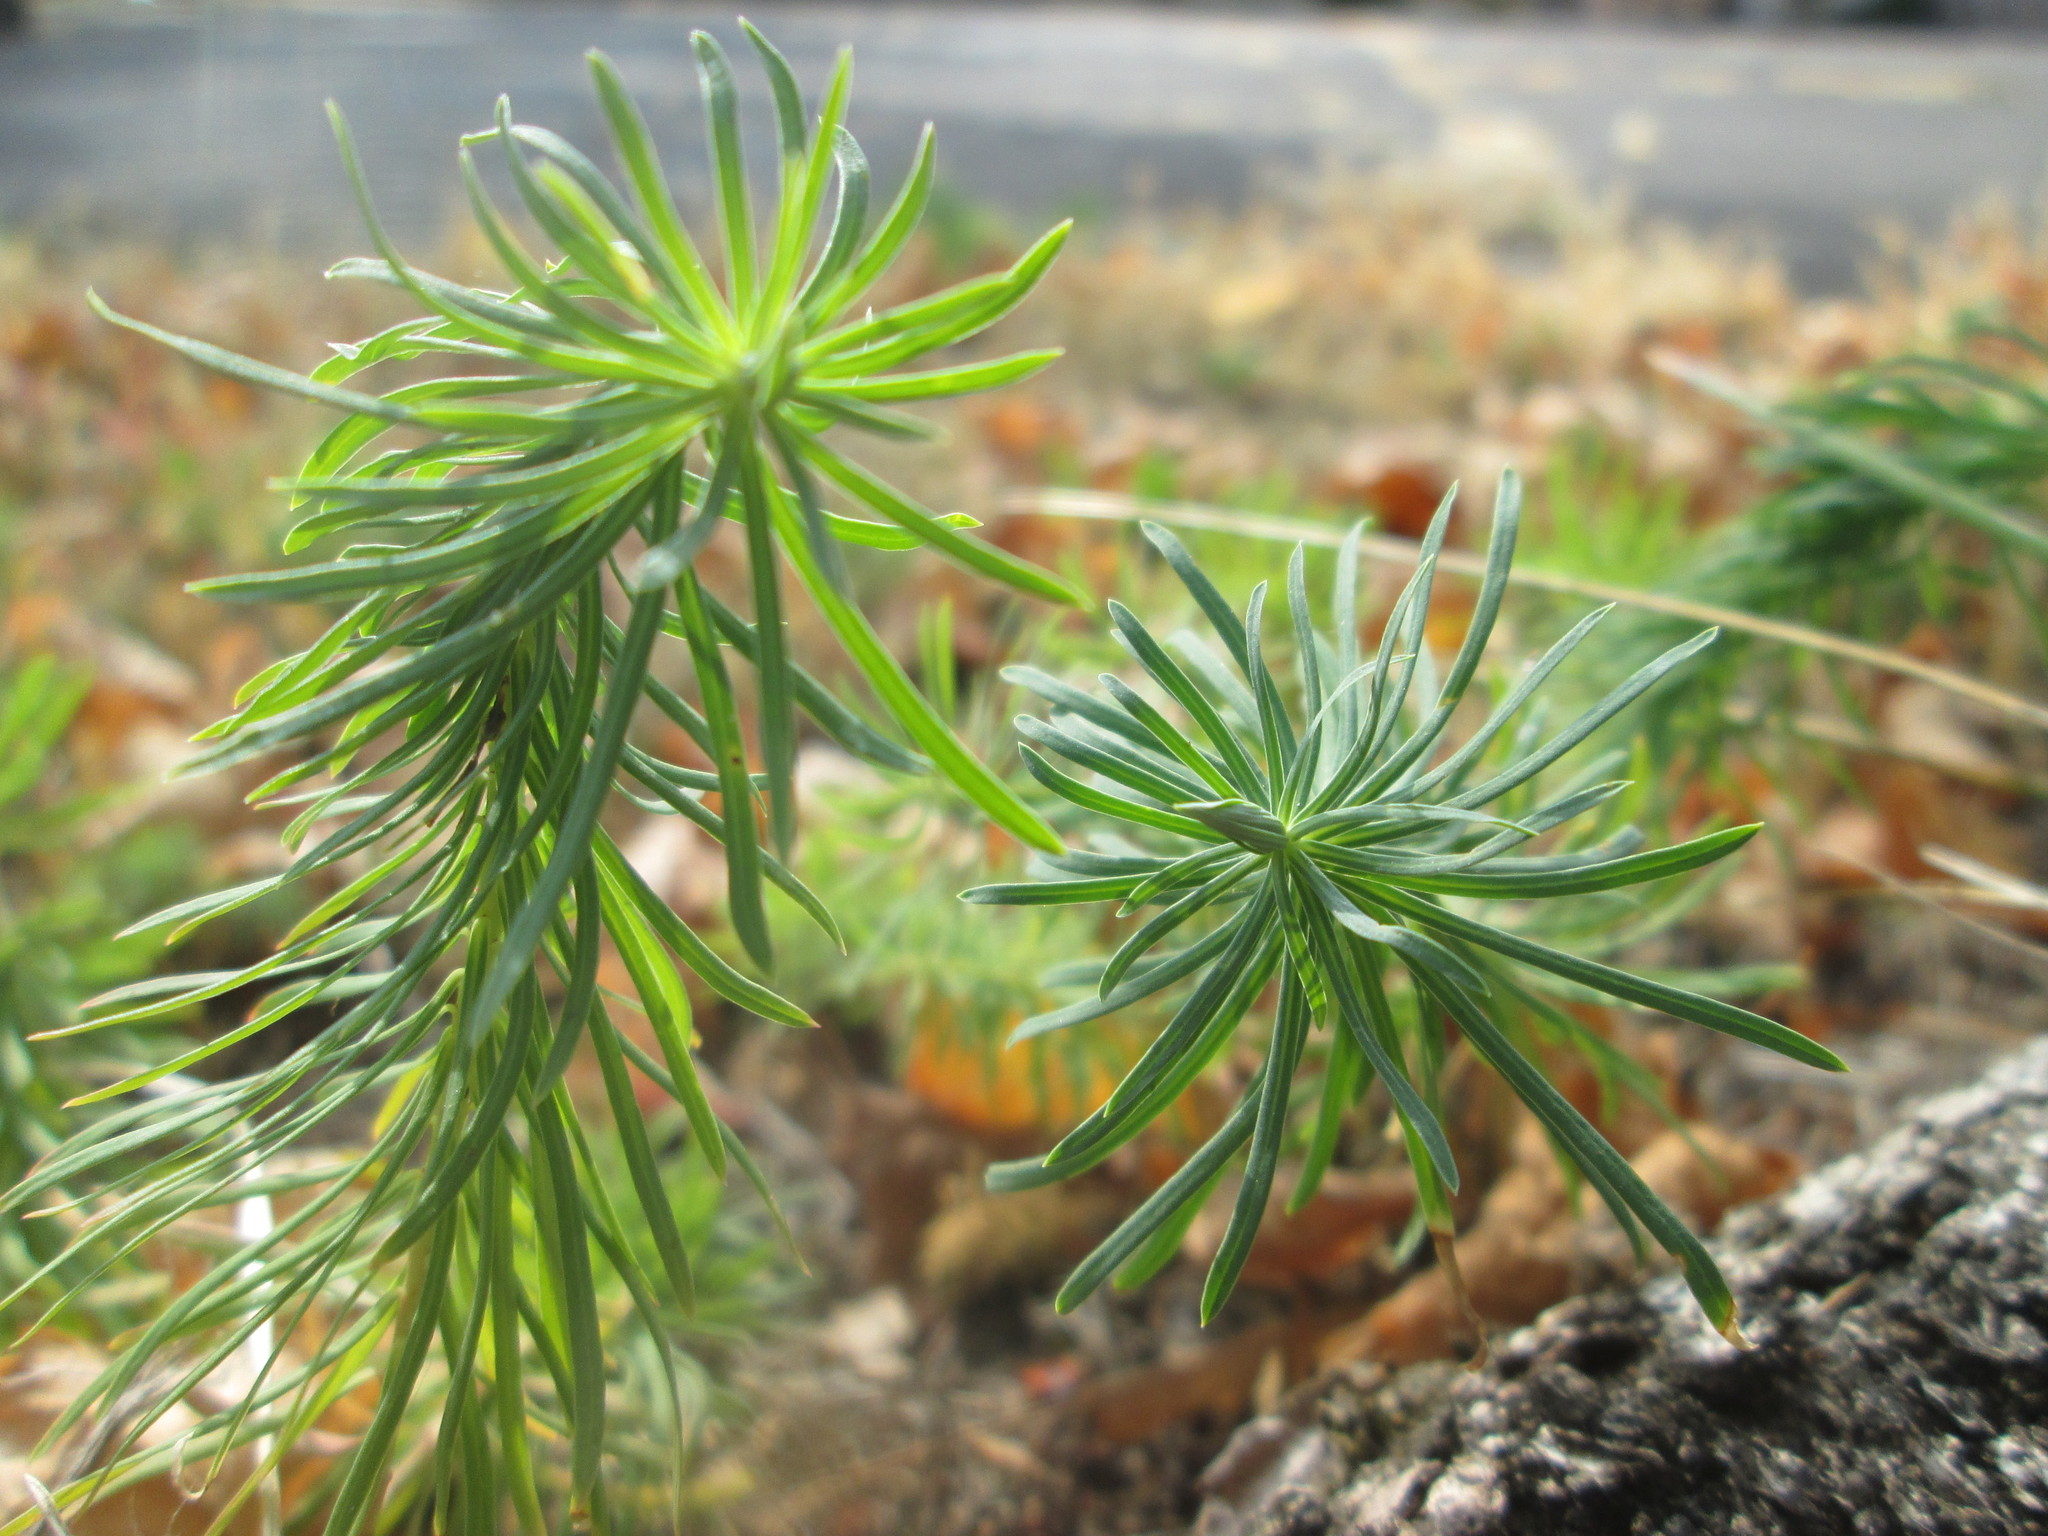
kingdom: Plantae
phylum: Tracheophyta
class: Magnoliopsida
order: Malpighiales
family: Euphorbiaceae
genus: Euphorbia
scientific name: Euphorbia cyparissias
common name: Cypress spurge
